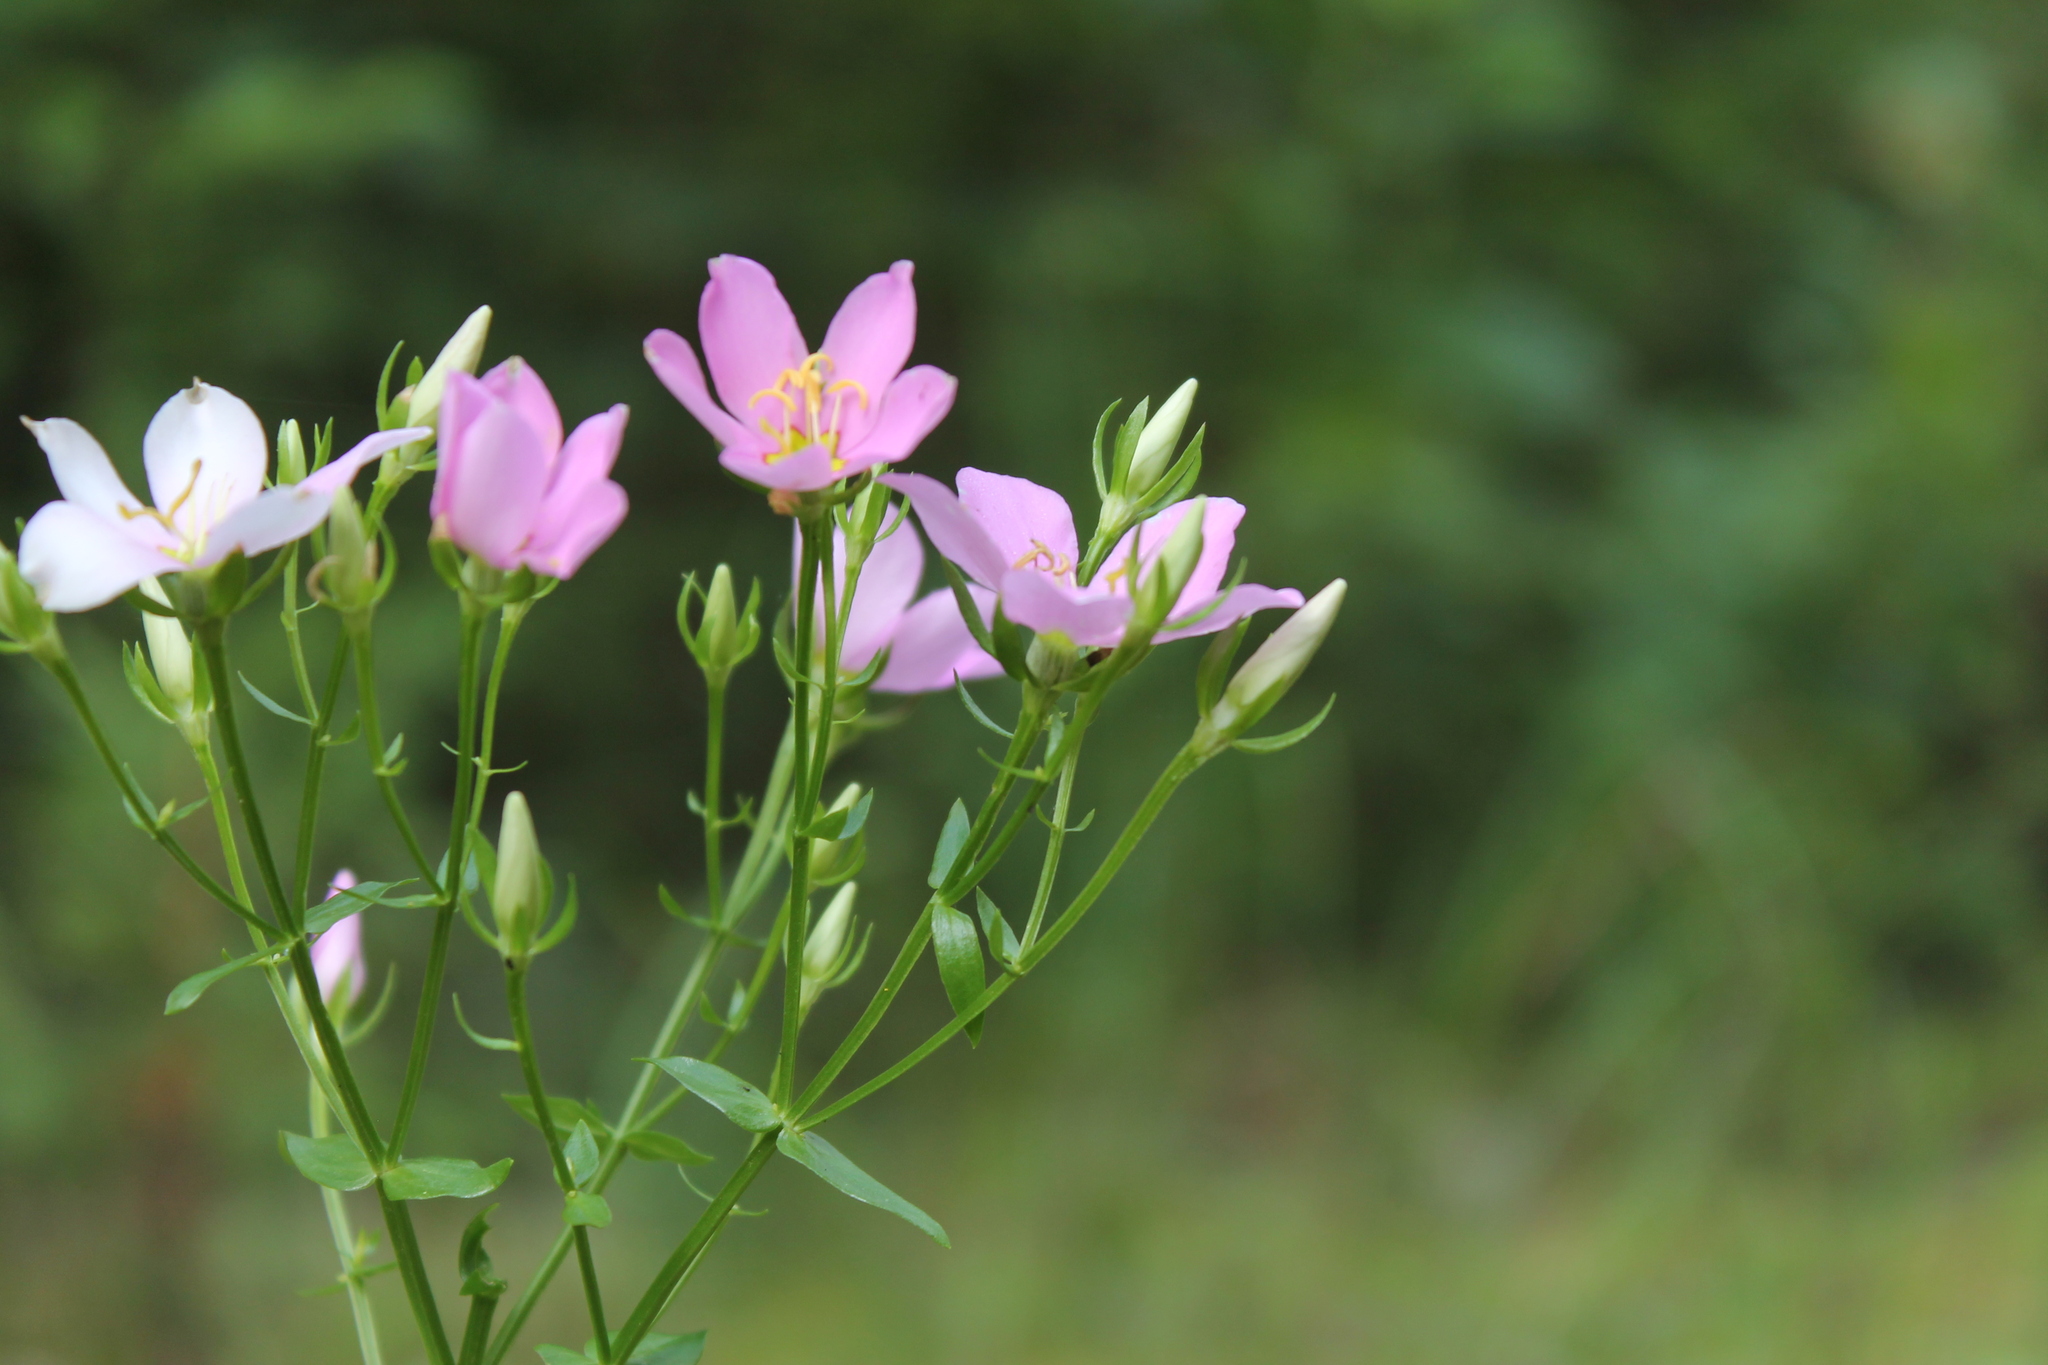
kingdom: Plantae
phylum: Tracheophyta
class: Magnoliopsida
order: Gentianales
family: Gentianaceae
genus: Sabatia
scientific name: Sabatia angularis
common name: Rose-pink
